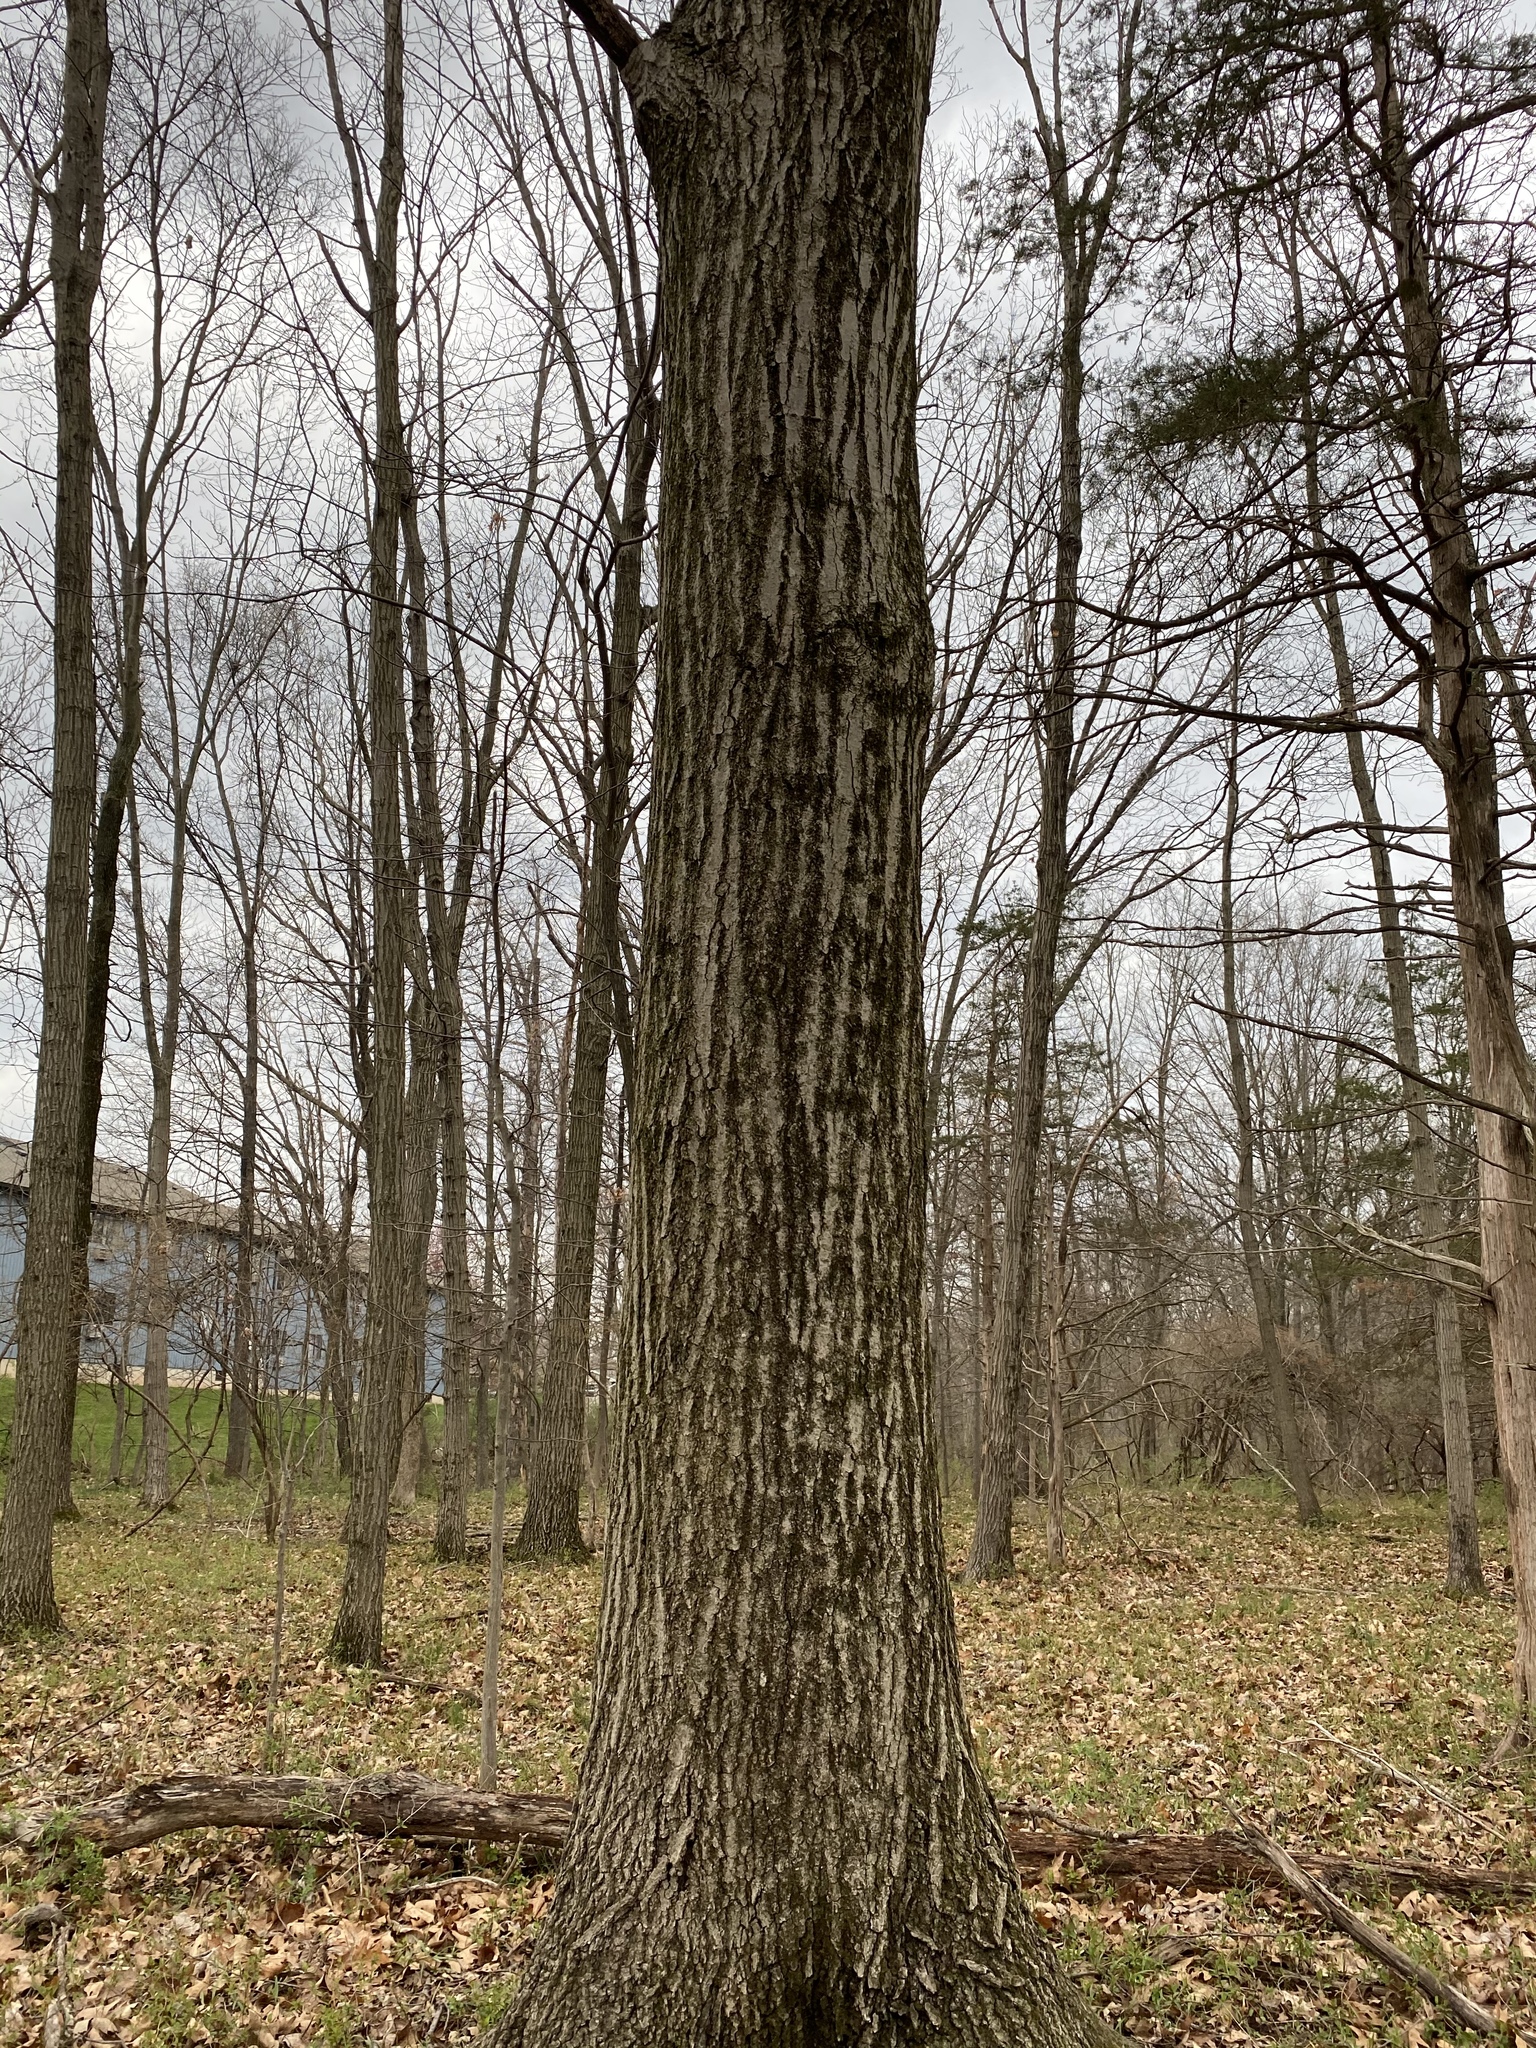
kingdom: Plantae
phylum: Tracheophyta
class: Magnoliopsida
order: Fagales
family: Fagaceae
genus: Quercus
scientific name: Quercus rubra
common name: Red oak
